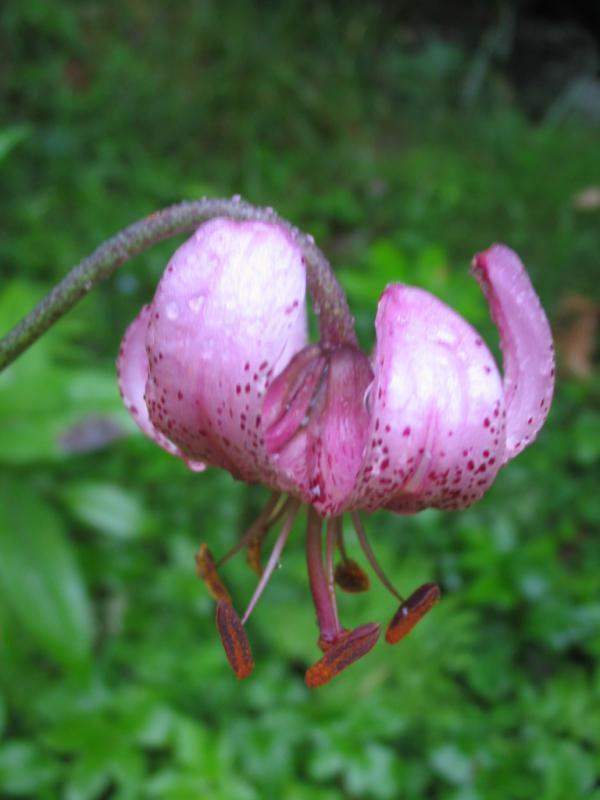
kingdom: Plantae
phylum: Tracheophyta
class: Liliopsida
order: Liliales
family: Liliaceae
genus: Lilium
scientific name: Lilium martagon
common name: Martagon lily
